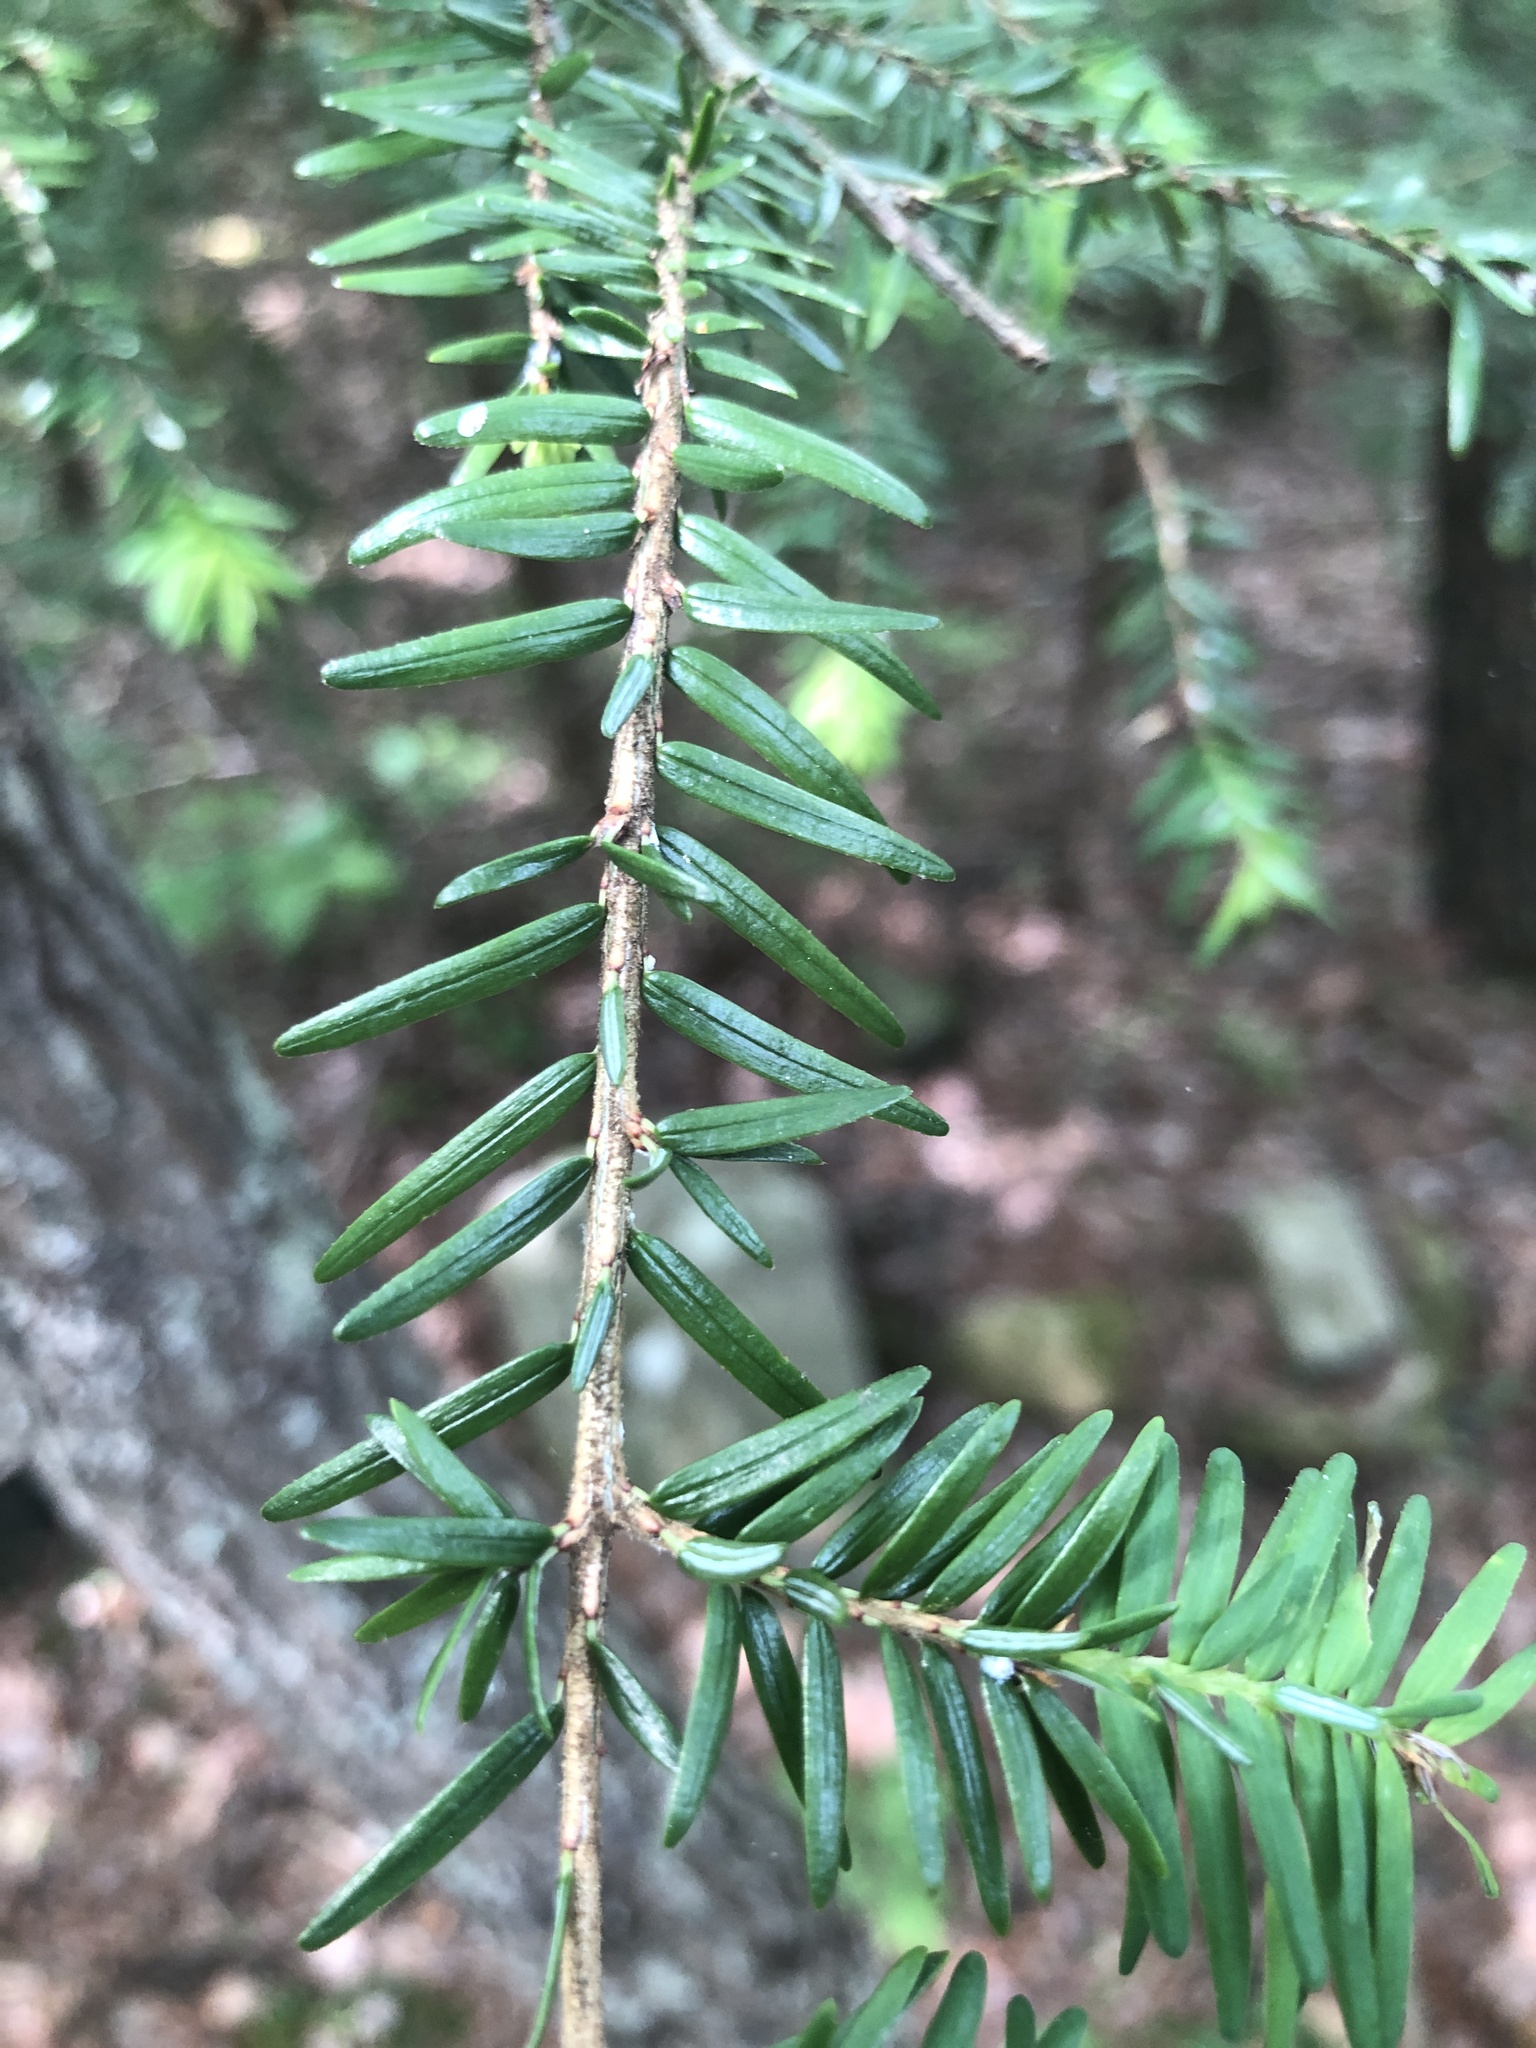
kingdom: Plantae
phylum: Tracheophyta
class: Pinopsida
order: Pinales
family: Pinaceae
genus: Tsuga
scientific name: Tsuga canadensis
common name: Eastern hemlock
